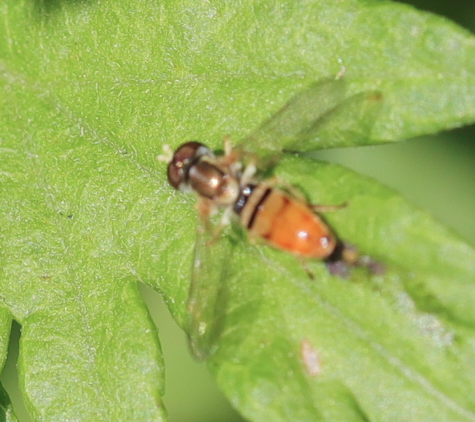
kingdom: Animalia
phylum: Arthropoda
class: Insecta
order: Diptera
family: Syrphidae
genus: Toxomerus
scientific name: Toxomerus marginatus
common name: Syrphid fly
